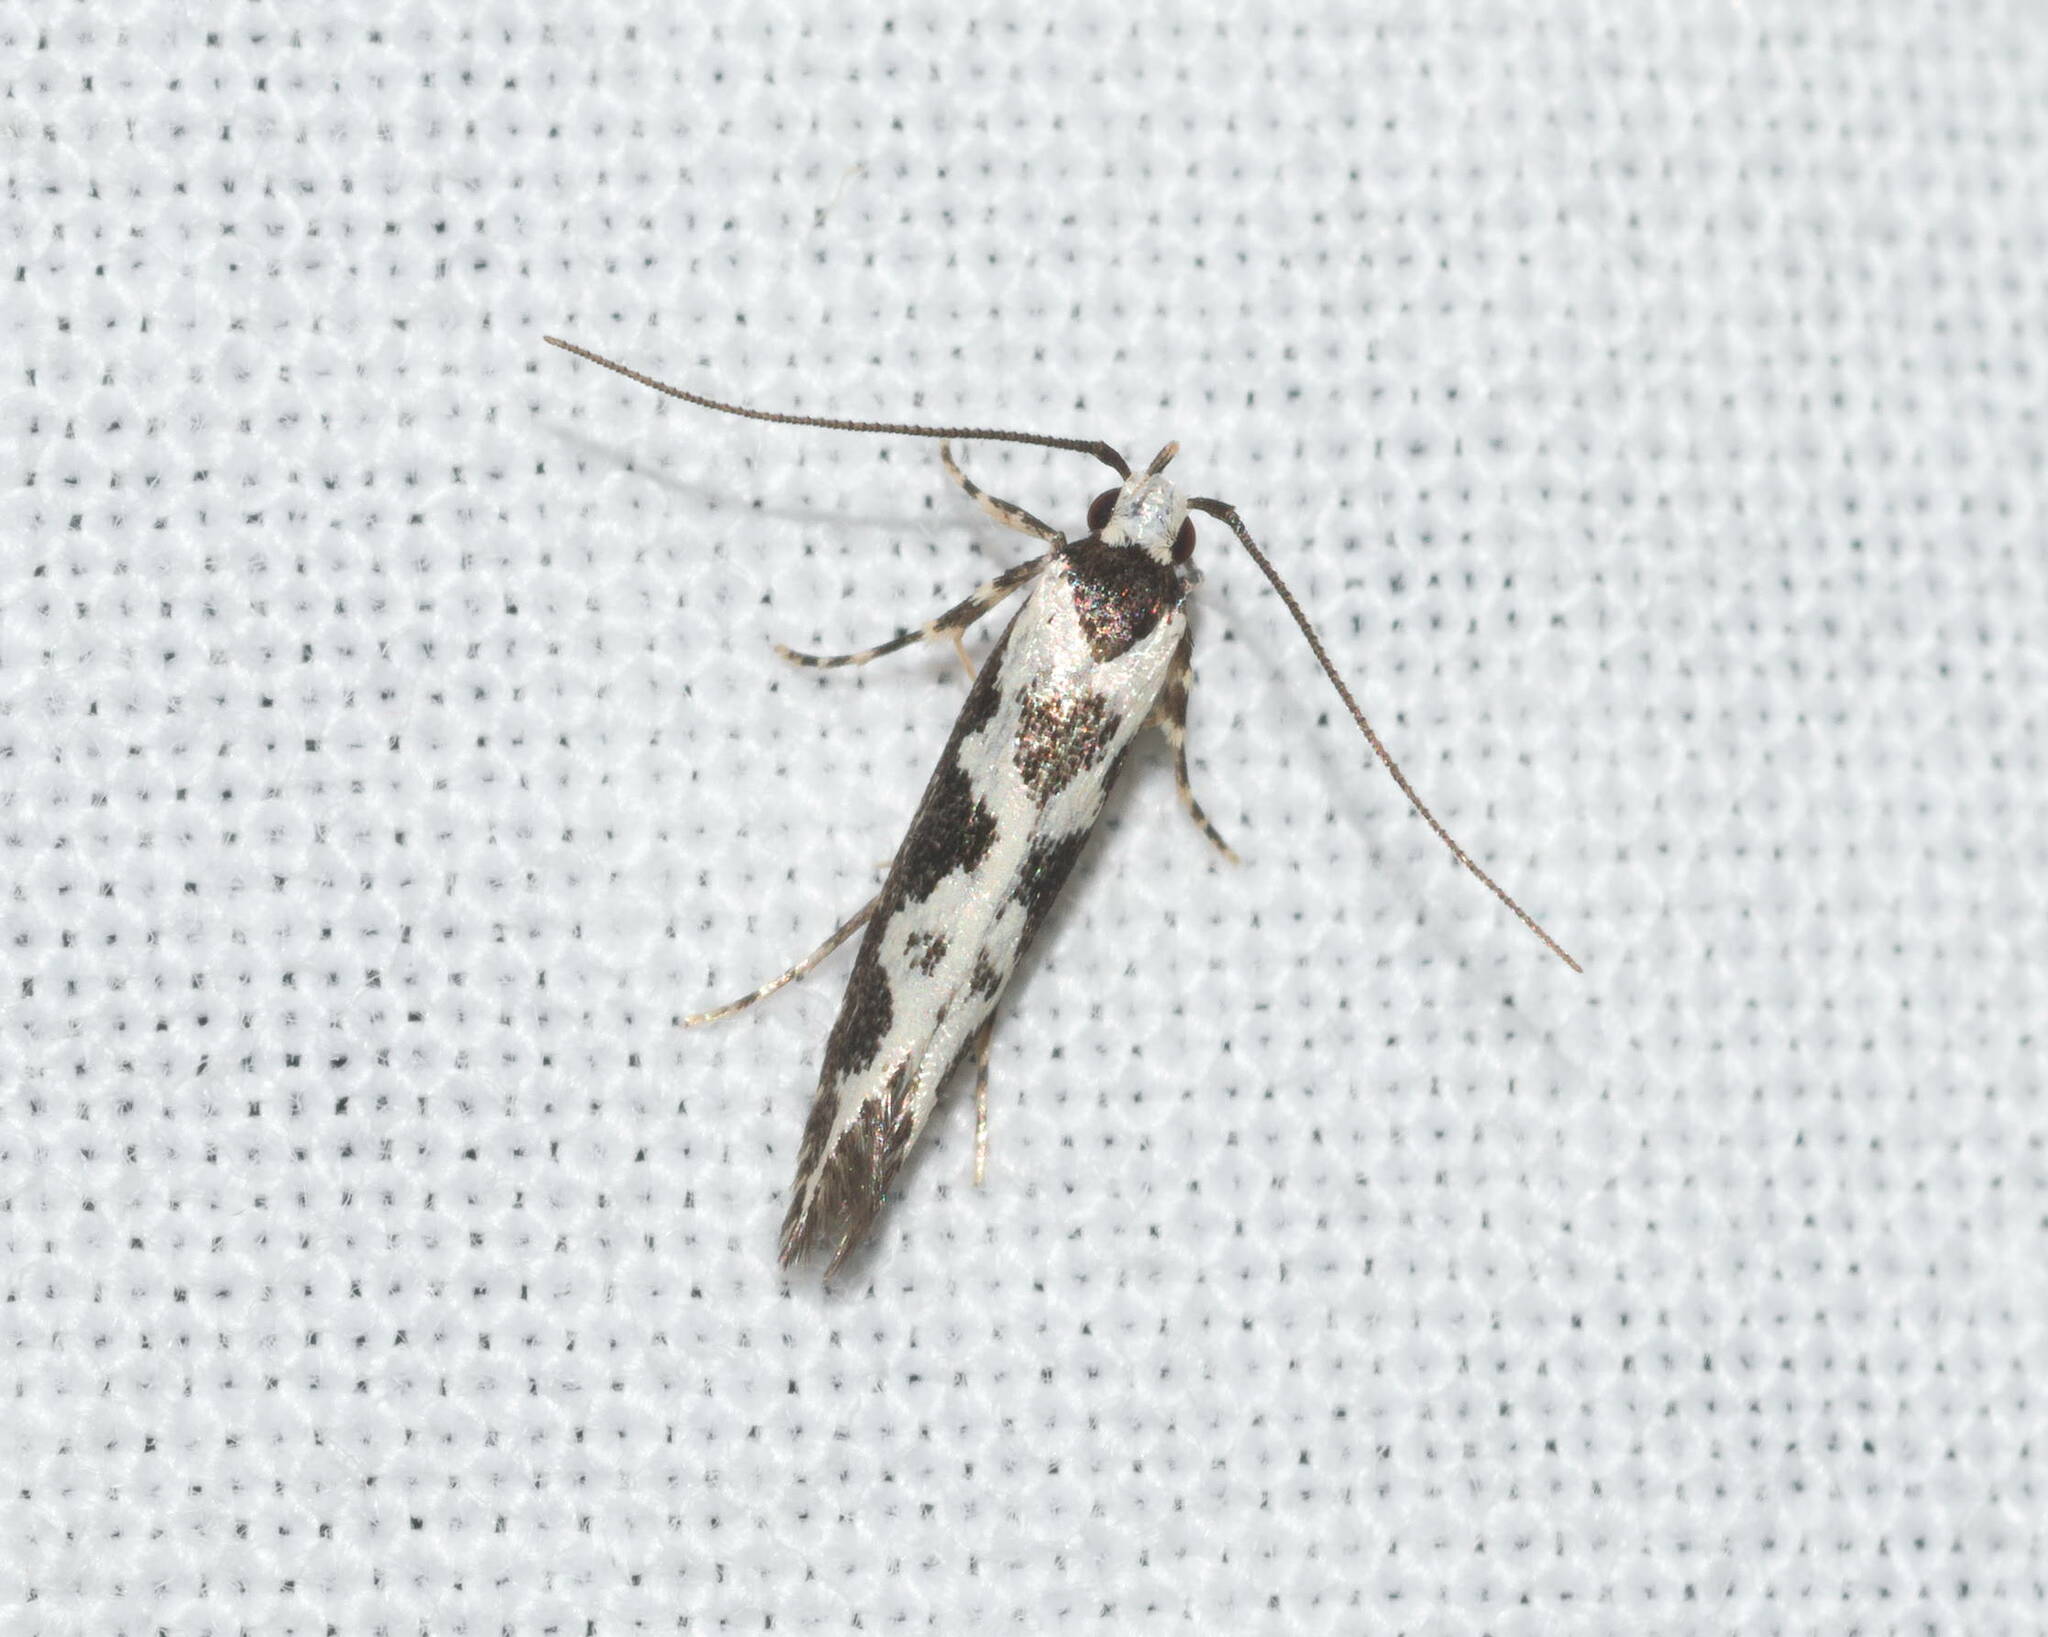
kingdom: Animalia
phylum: Arthropoda
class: Insecta
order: Lepidoptera
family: Cosmopterigidae
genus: Hyposmochoma
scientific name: Hyposmochoma exornata
